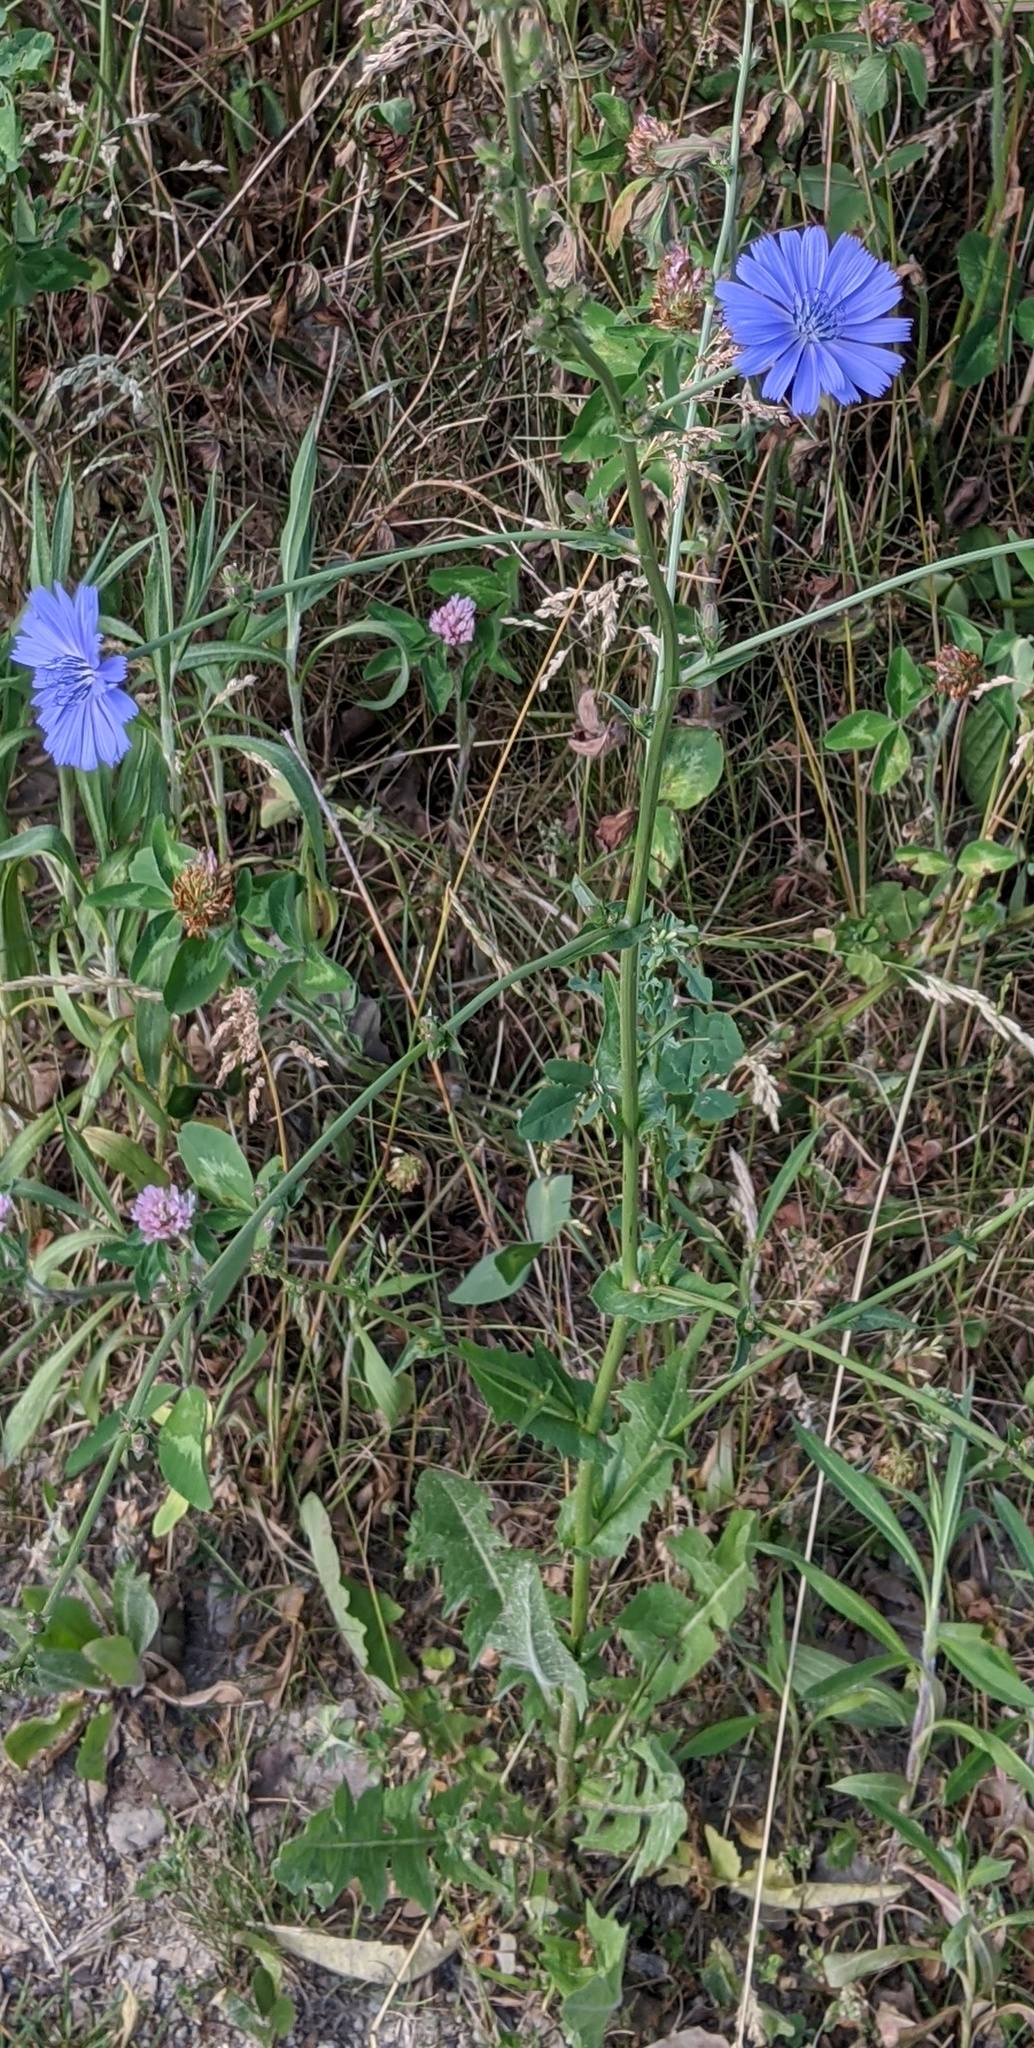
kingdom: Plantae
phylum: Tracheophyta
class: Magnoliopsida
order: Asterales
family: Asteraceae
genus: Cichorium
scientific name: Cichorium intybus
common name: Chicory
